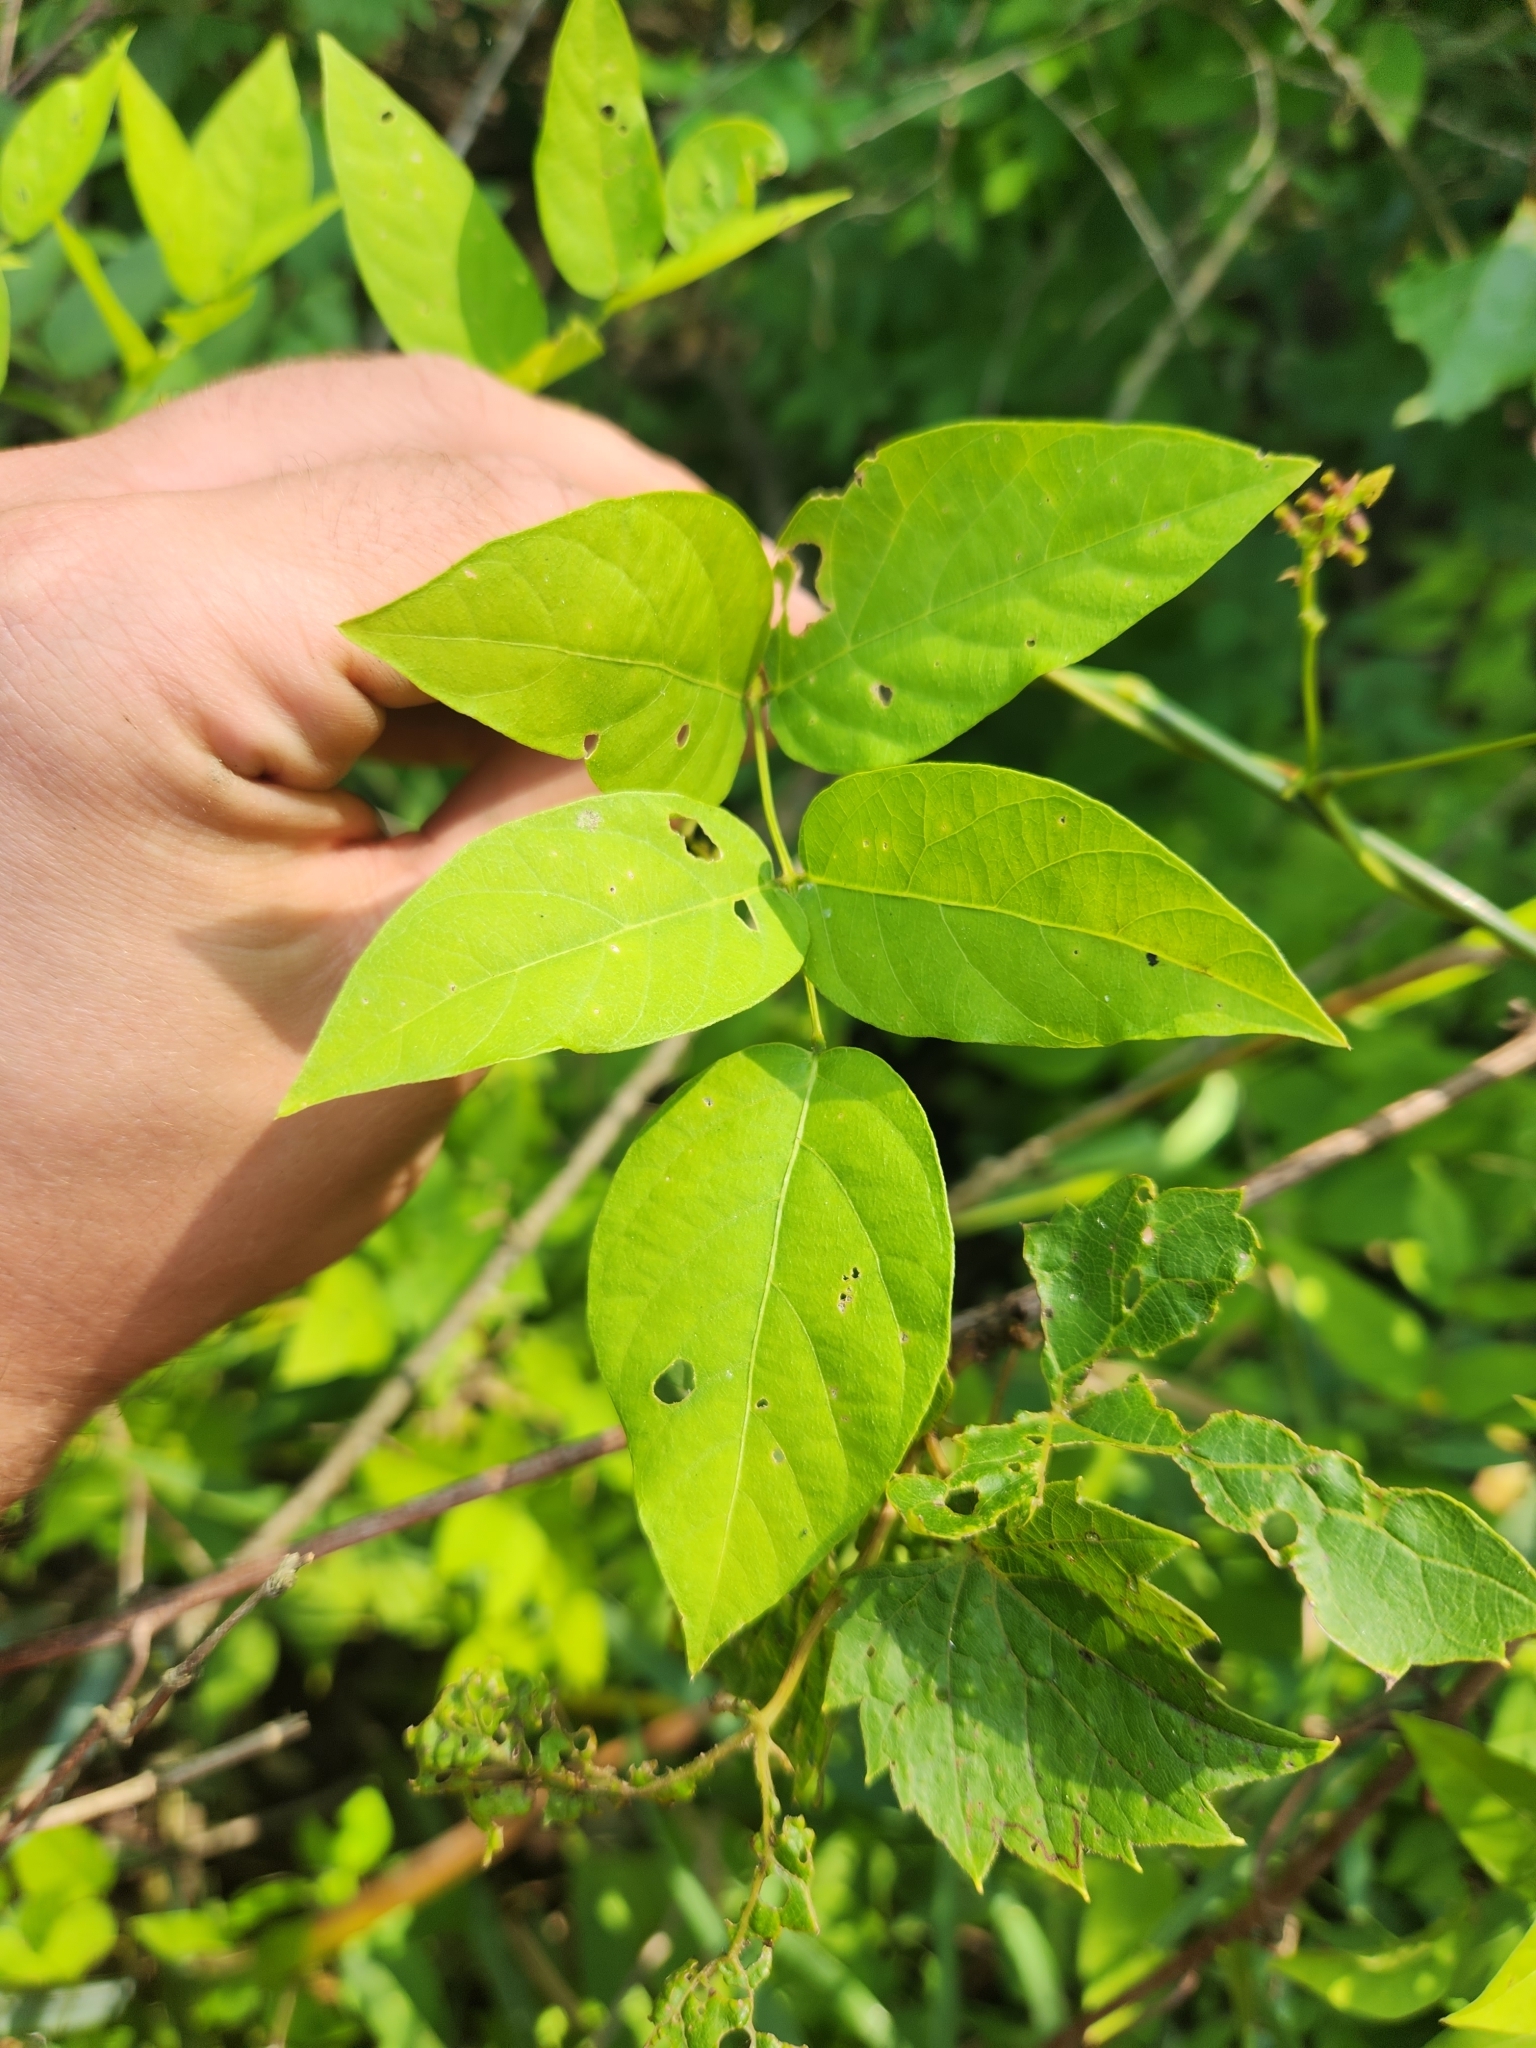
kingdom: Plantae
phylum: Tracheophyta
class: Magnoliopsida
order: Fabales
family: Fabaceae
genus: Apios
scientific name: Apios americana
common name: American potato-bean
